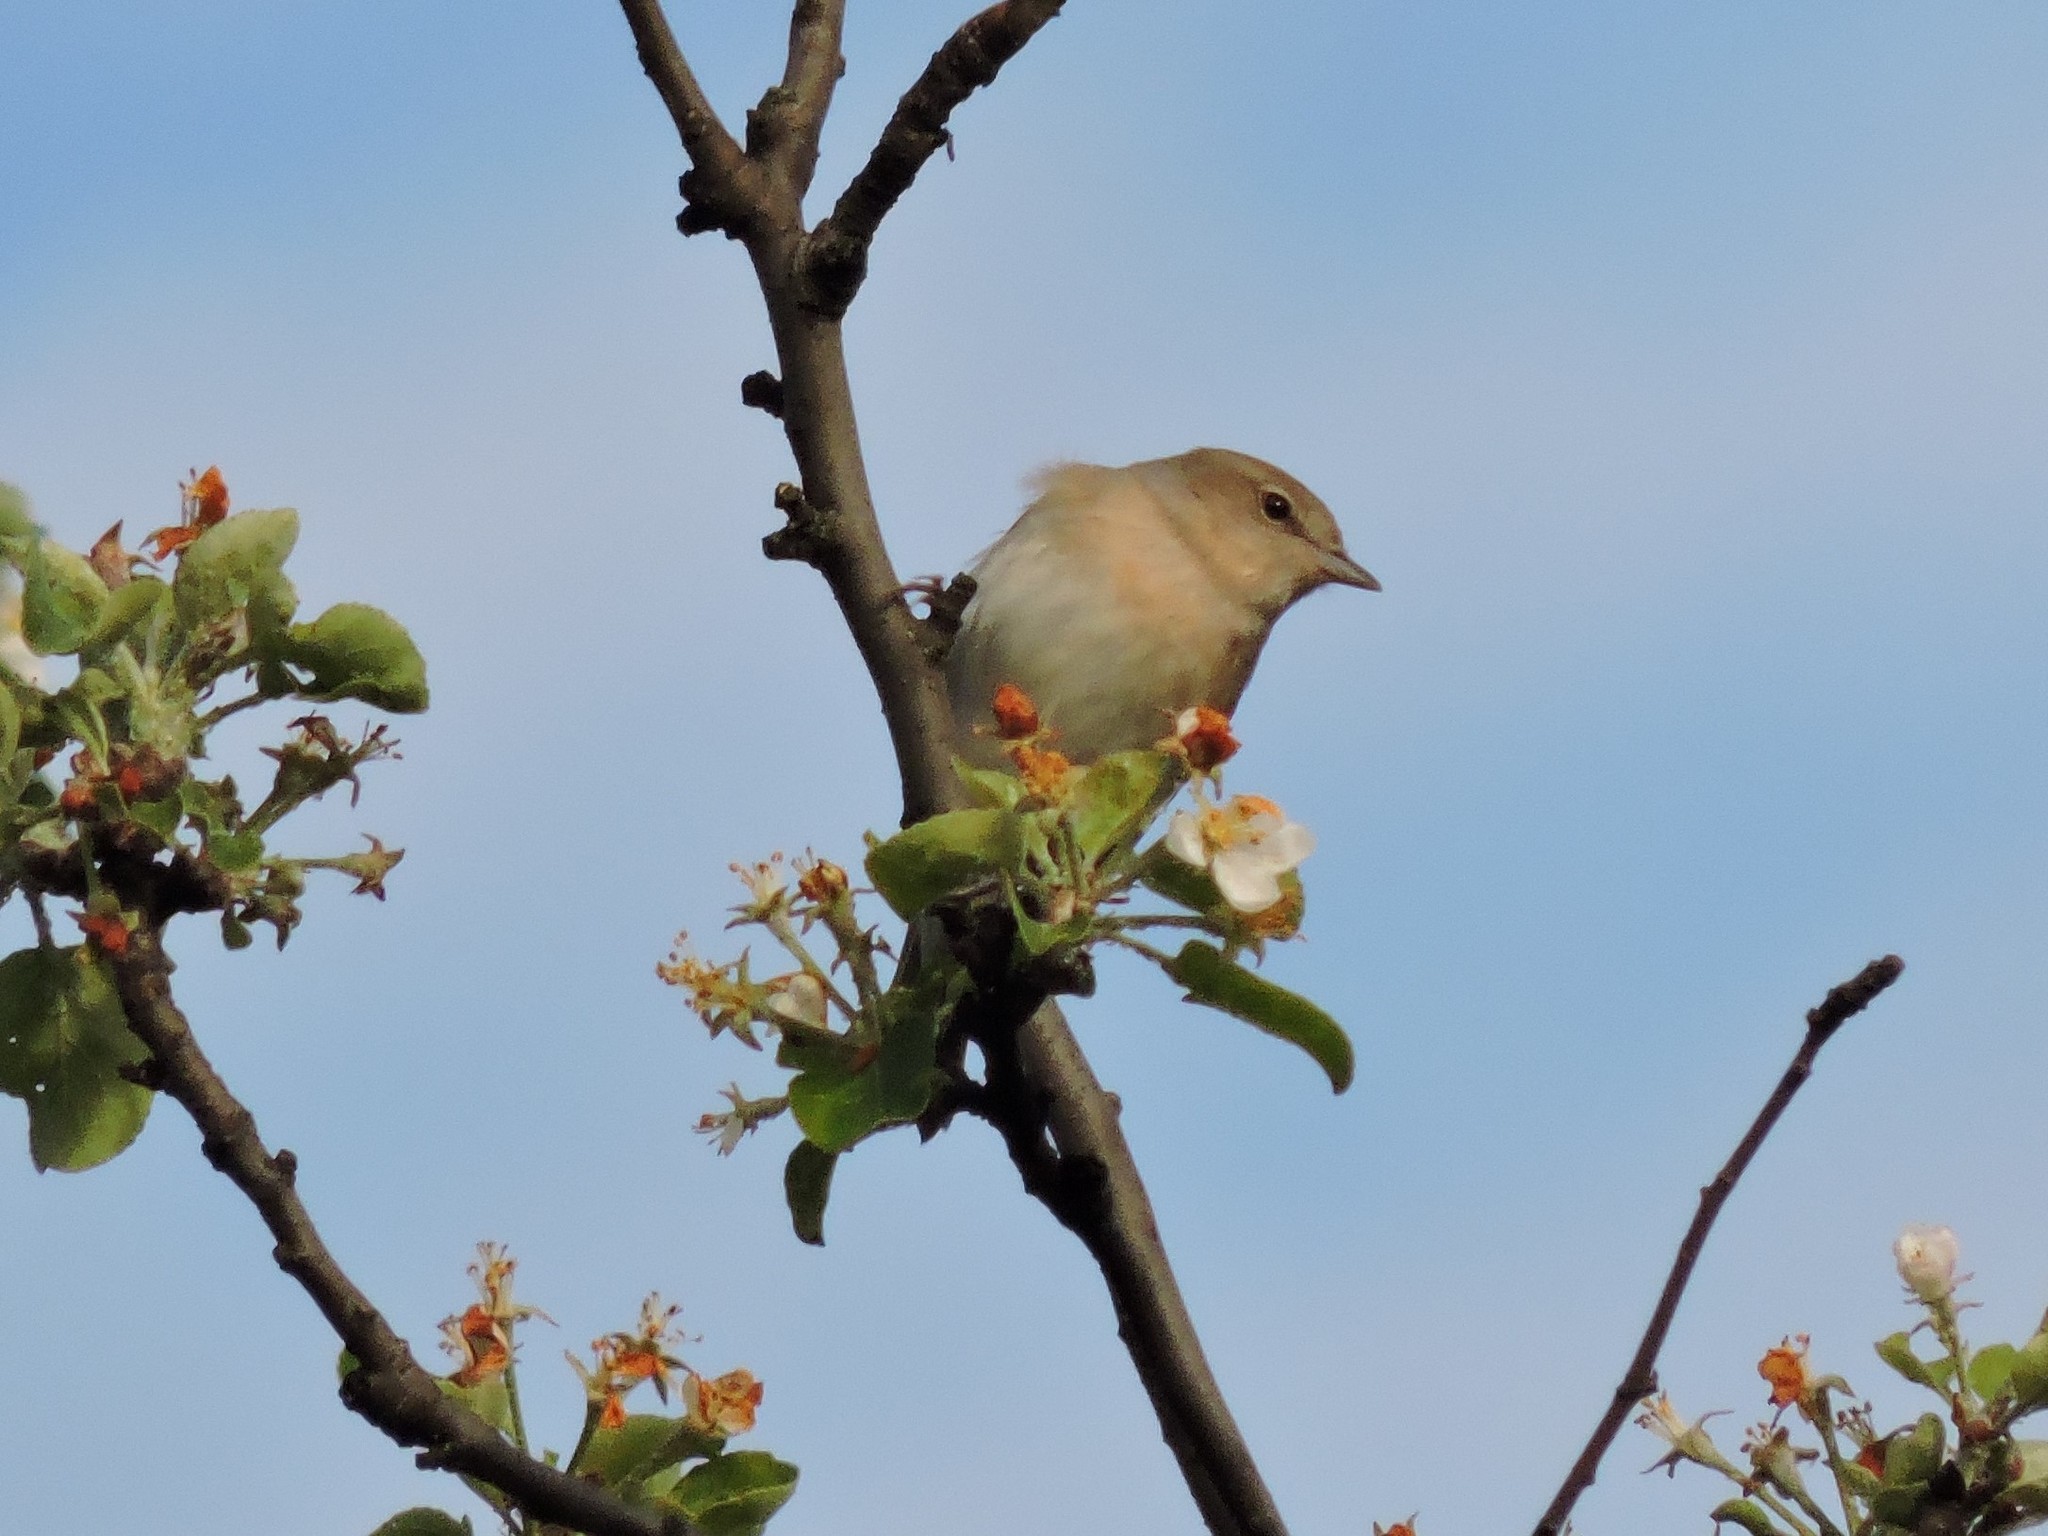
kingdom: Animalia
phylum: Chordata
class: Aves
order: Passeriformes
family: Sylviidae
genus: Sylvia
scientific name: Sylvia borin
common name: Garden warbler
